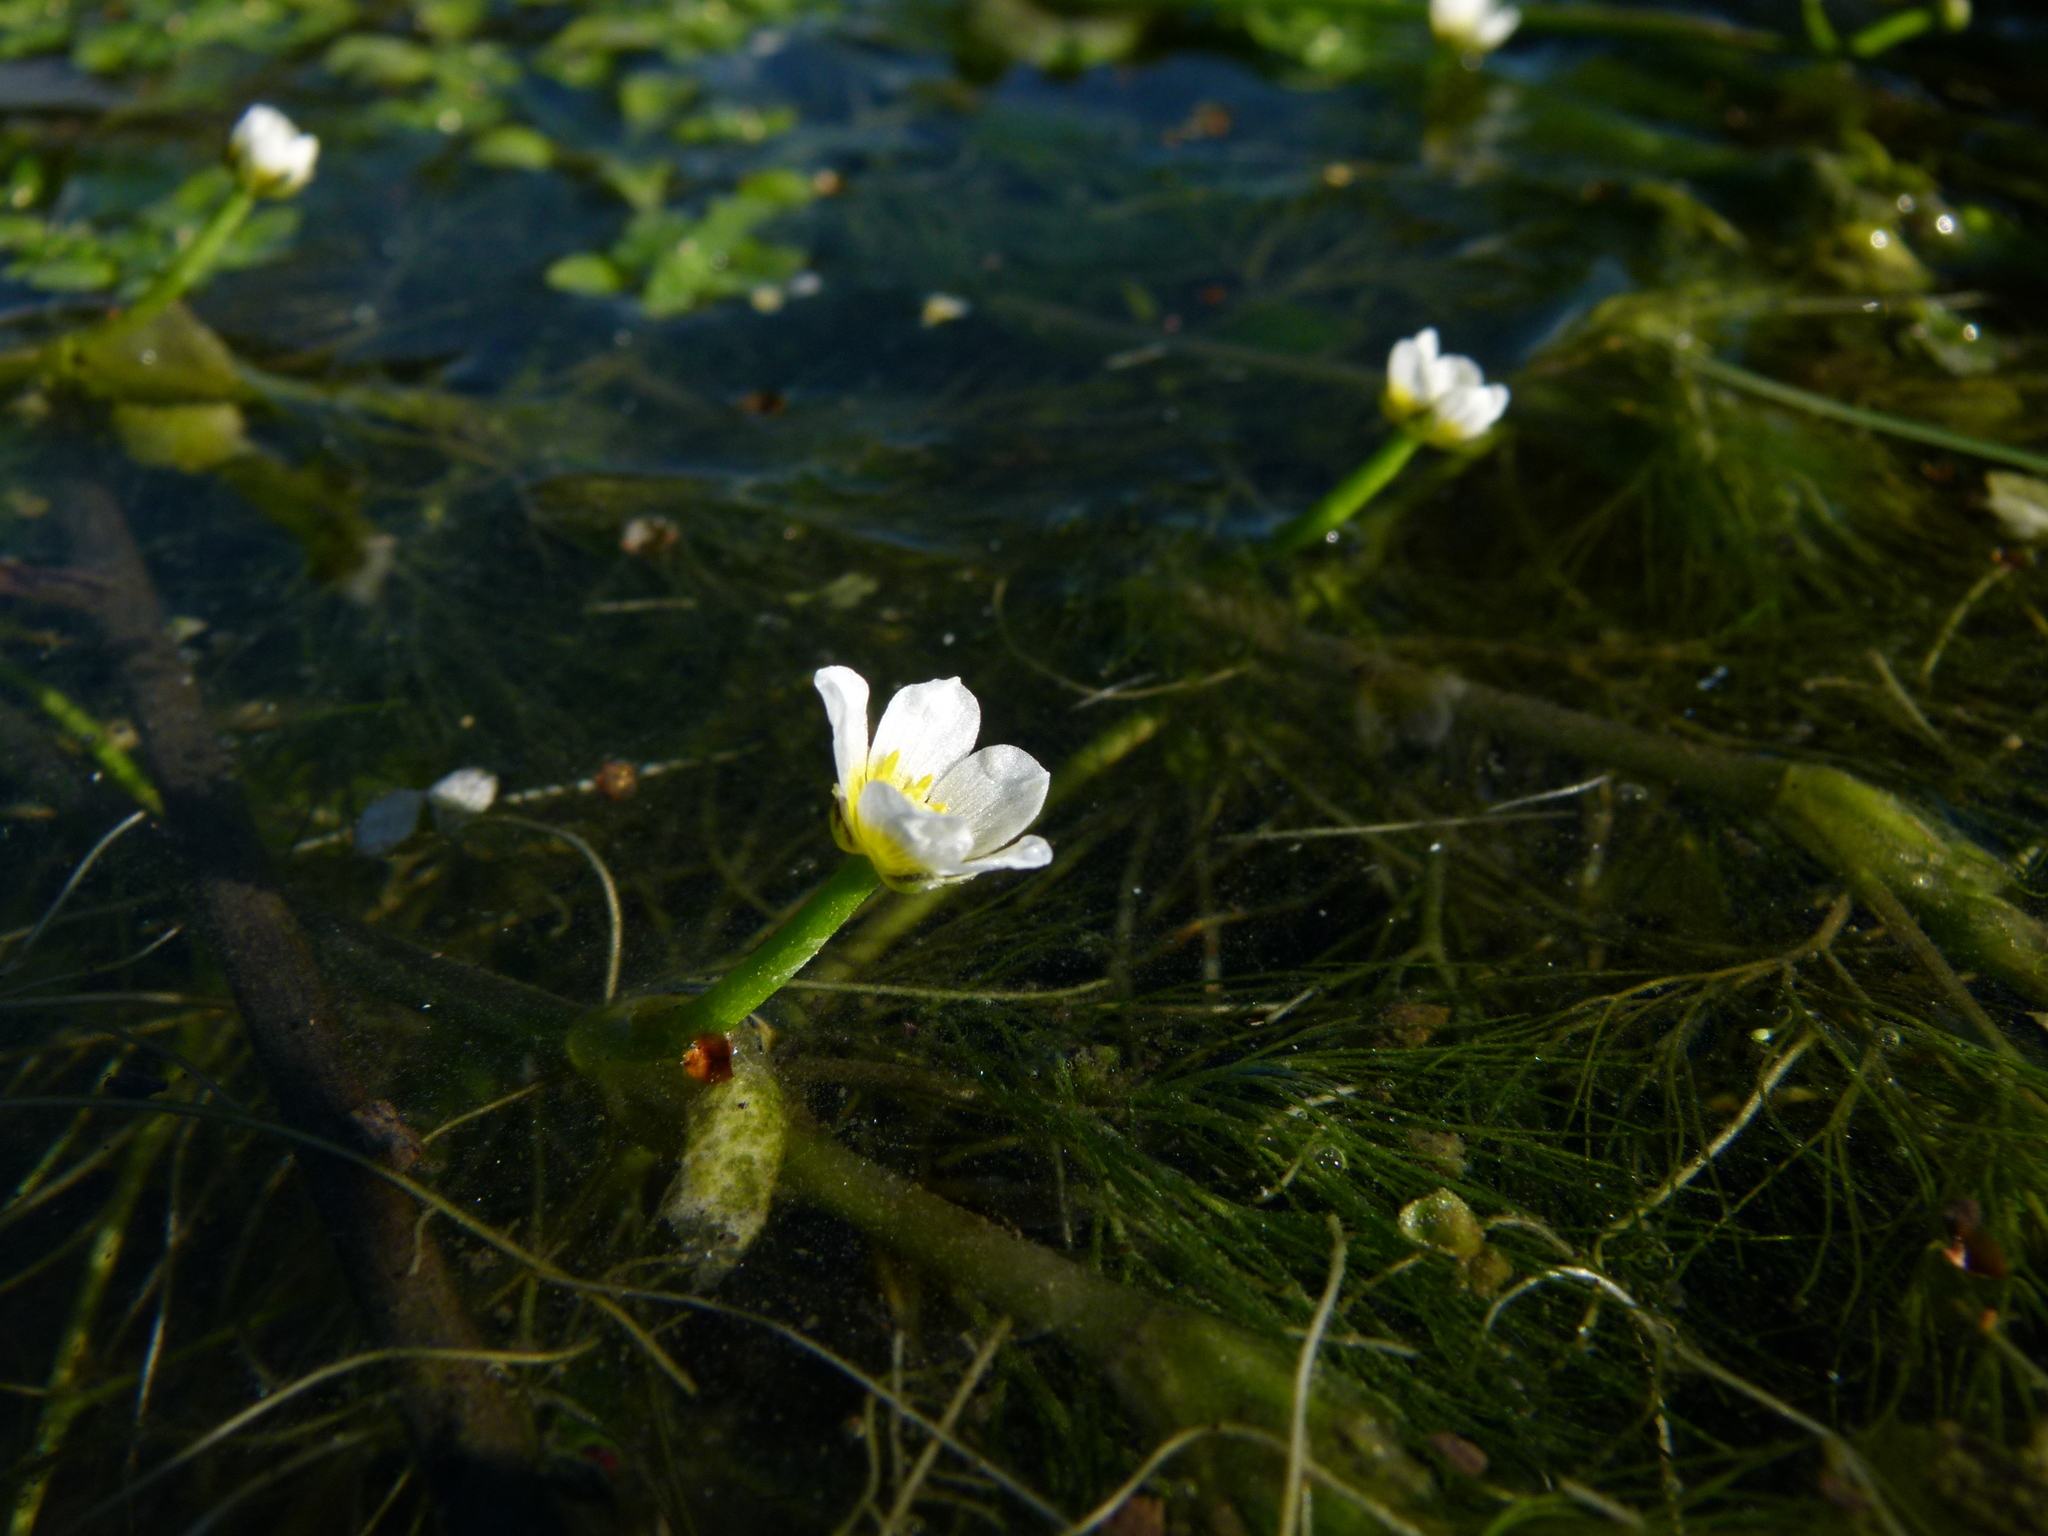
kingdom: Plantae
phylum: Tracheophyta
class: Magnoliopsida
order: Ranunculales
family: Ranunculaceae
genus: Ranunculus
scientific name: Ranunculus trichophyllus
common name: Thread-leaved water-crowfoot
